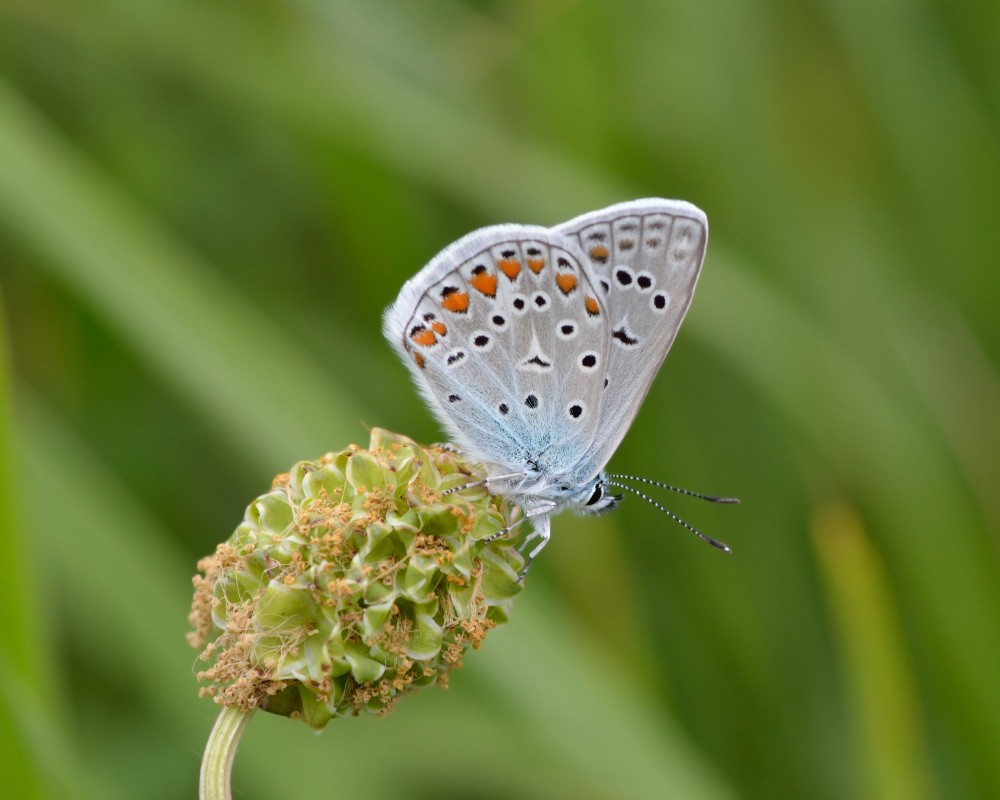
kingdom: Animalia
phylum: Arthropoda
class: Insecta
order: Lepidoptera
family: Lycaenidae
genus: Polyommatus
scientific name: Polyommatus icarus
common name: Common blue
